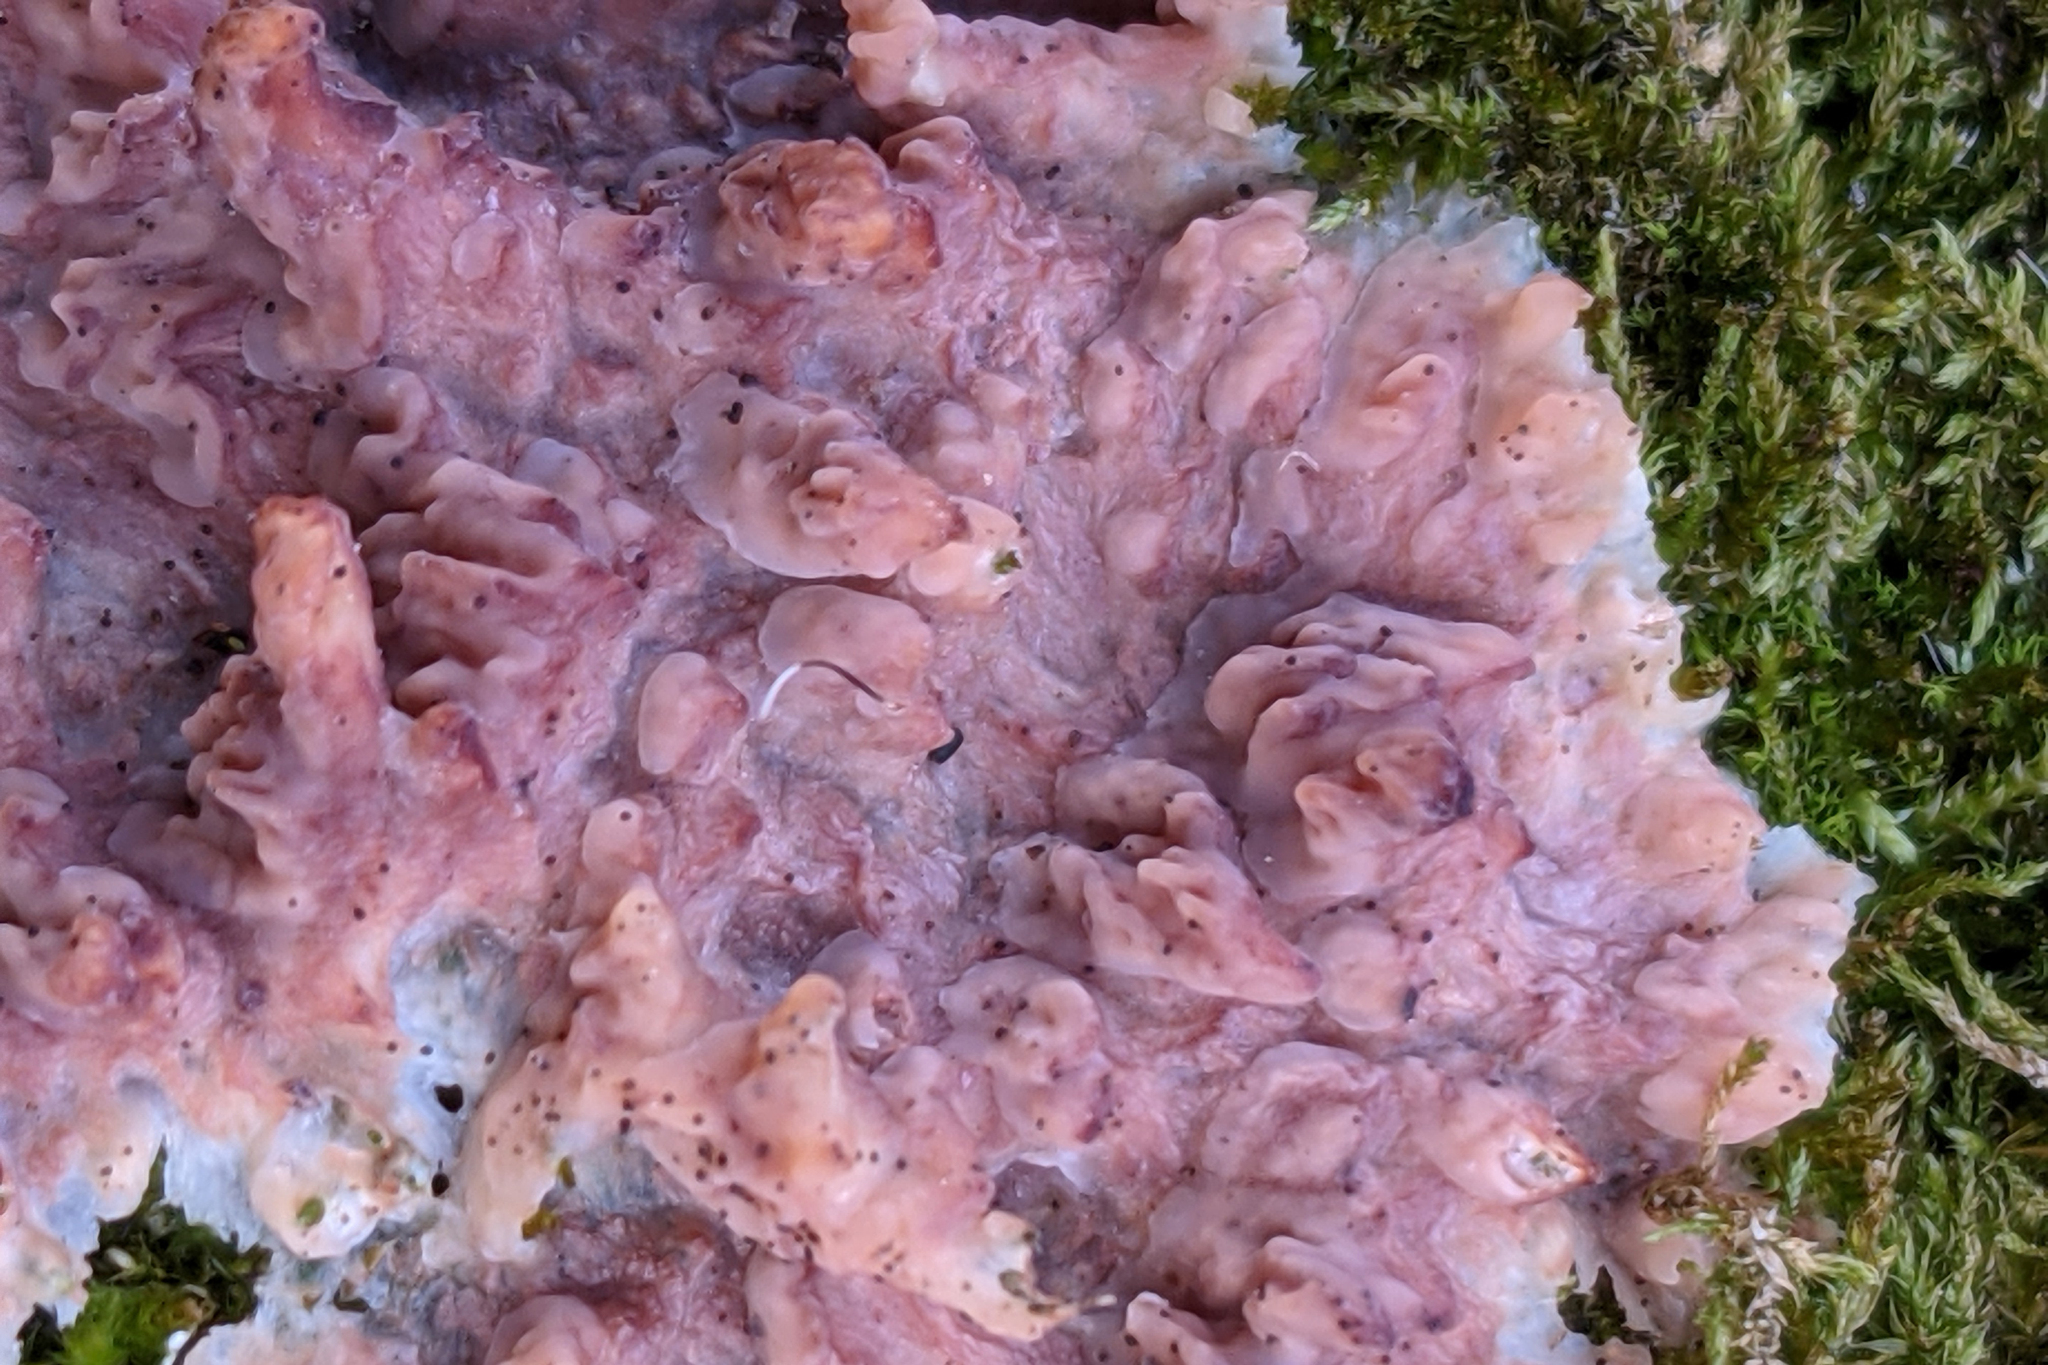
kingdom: Fungi
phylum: Basidiomycota
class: Agaricomycetes
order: Polyporales
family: Meruliaceae
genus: Phlebia
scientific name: Phlebia radiata
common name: Wrinkled crust
